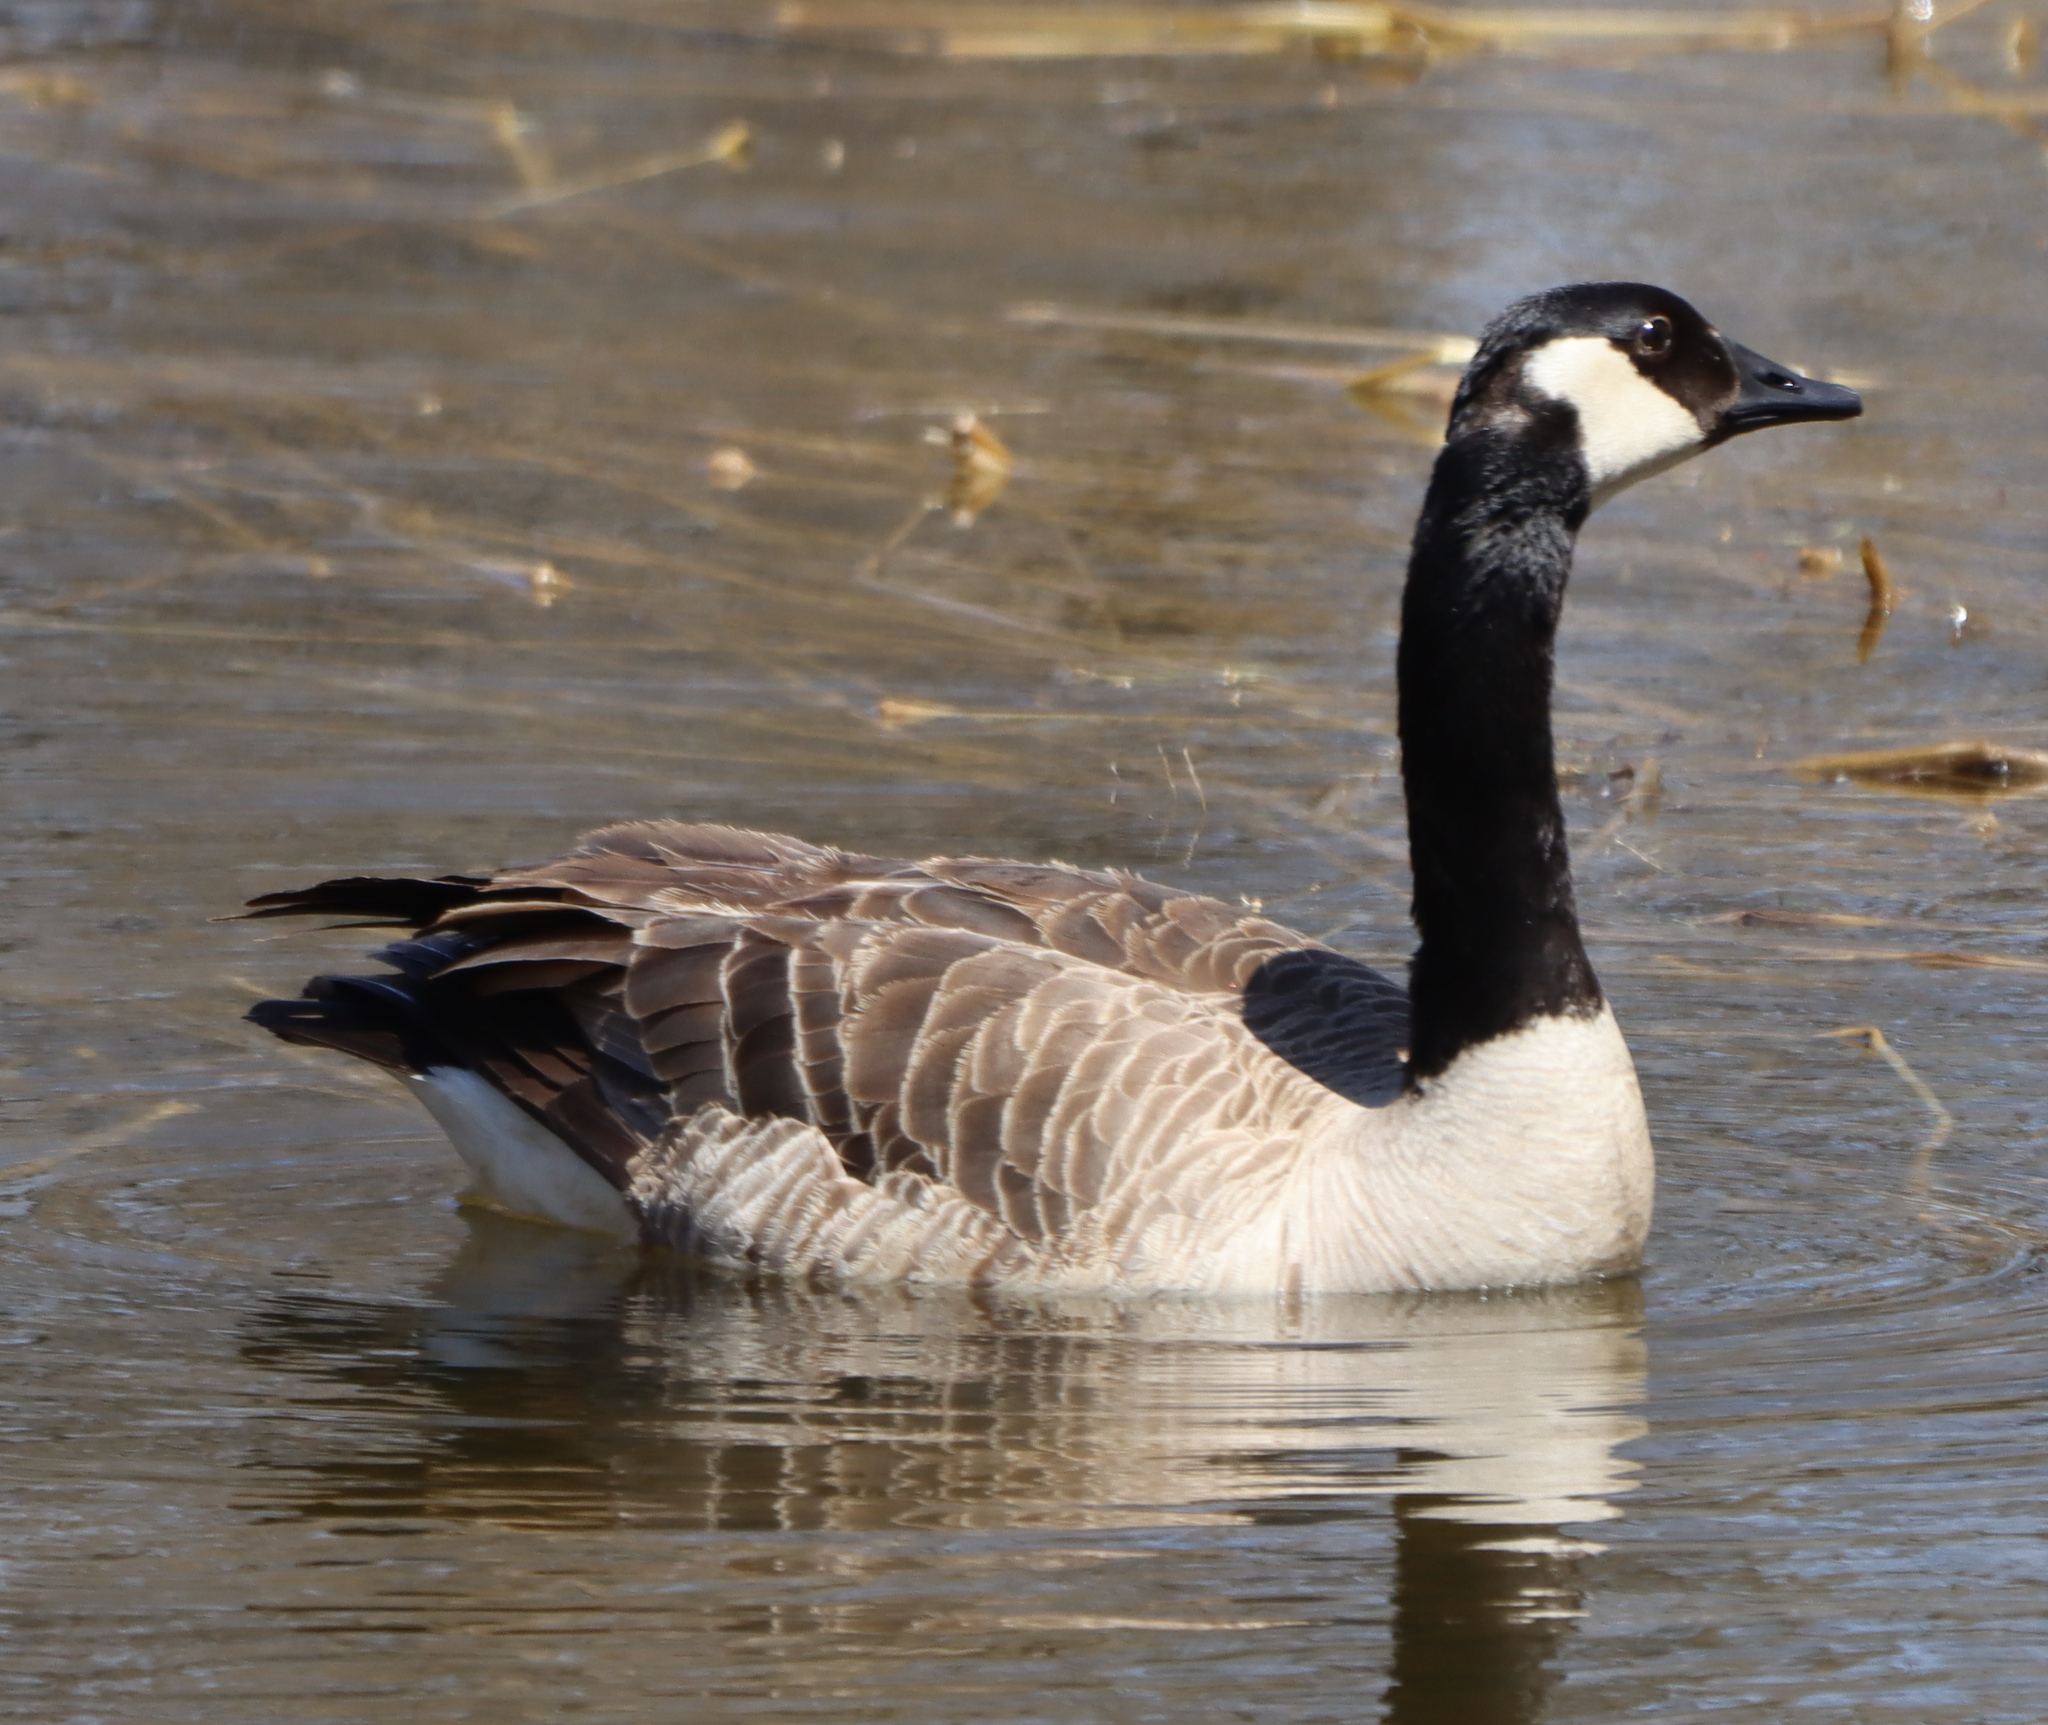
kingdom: Animalia
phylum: Chordata
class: Aves
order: Anseriformes
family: Anatidae
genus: Branta
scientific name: Branta canadensis
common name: Canada goose
